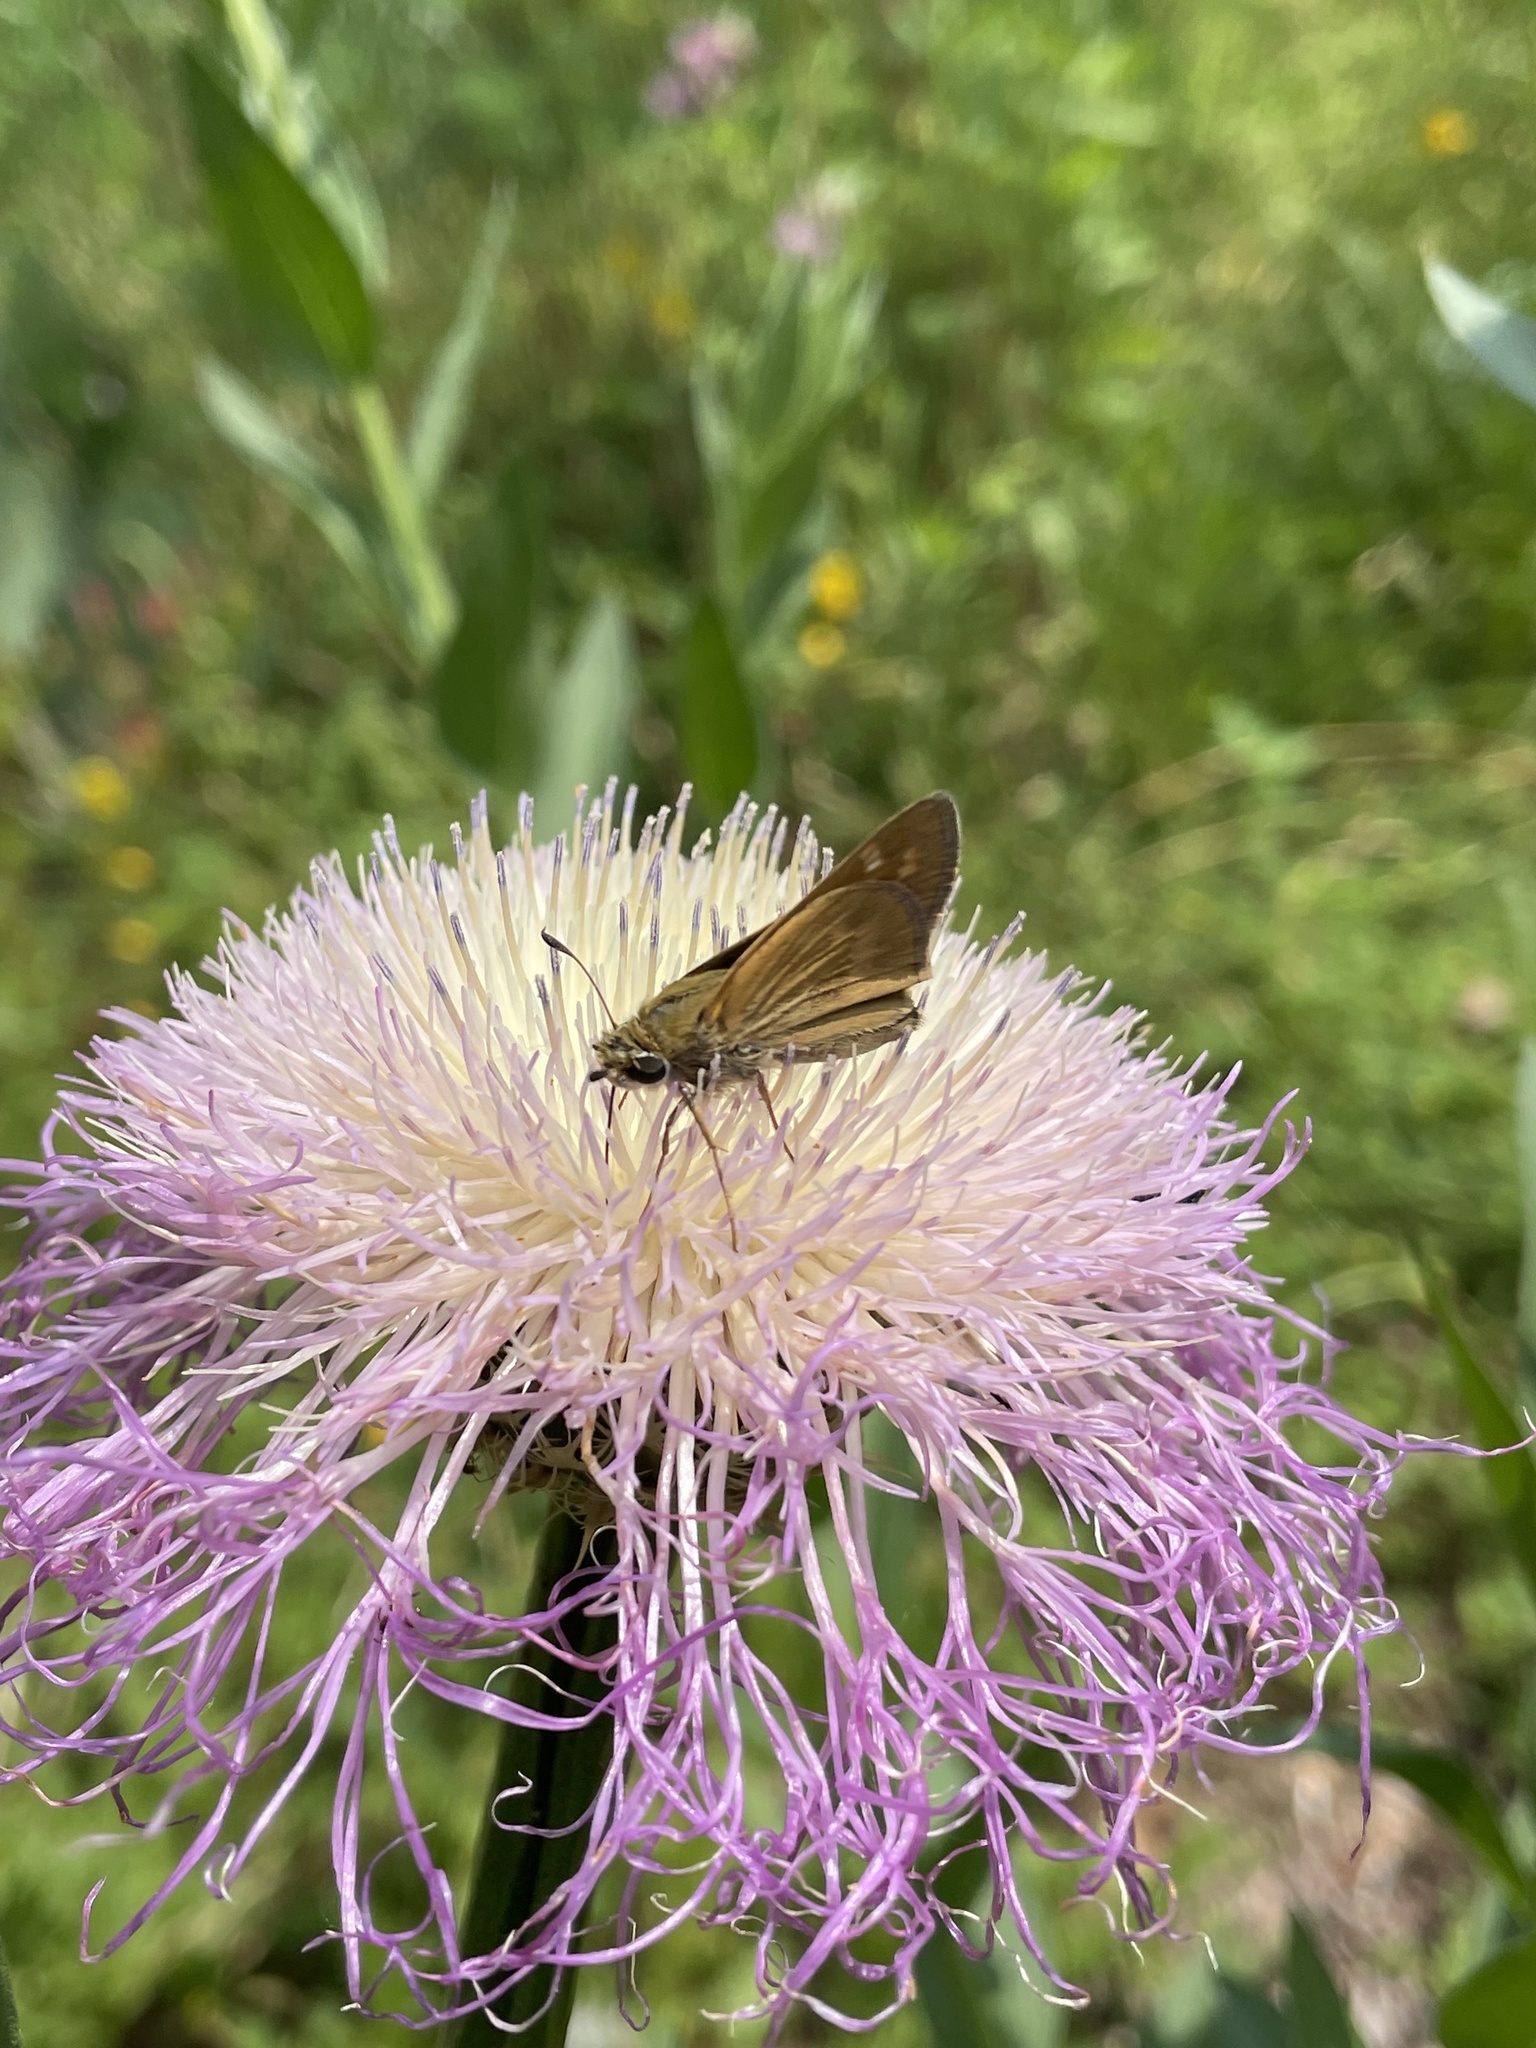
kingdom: Animalia
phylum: Arthropoda
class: Insecta
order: Lepidoptera
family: Hesperiidae
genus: Atalopedes
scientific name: Atalopedes
